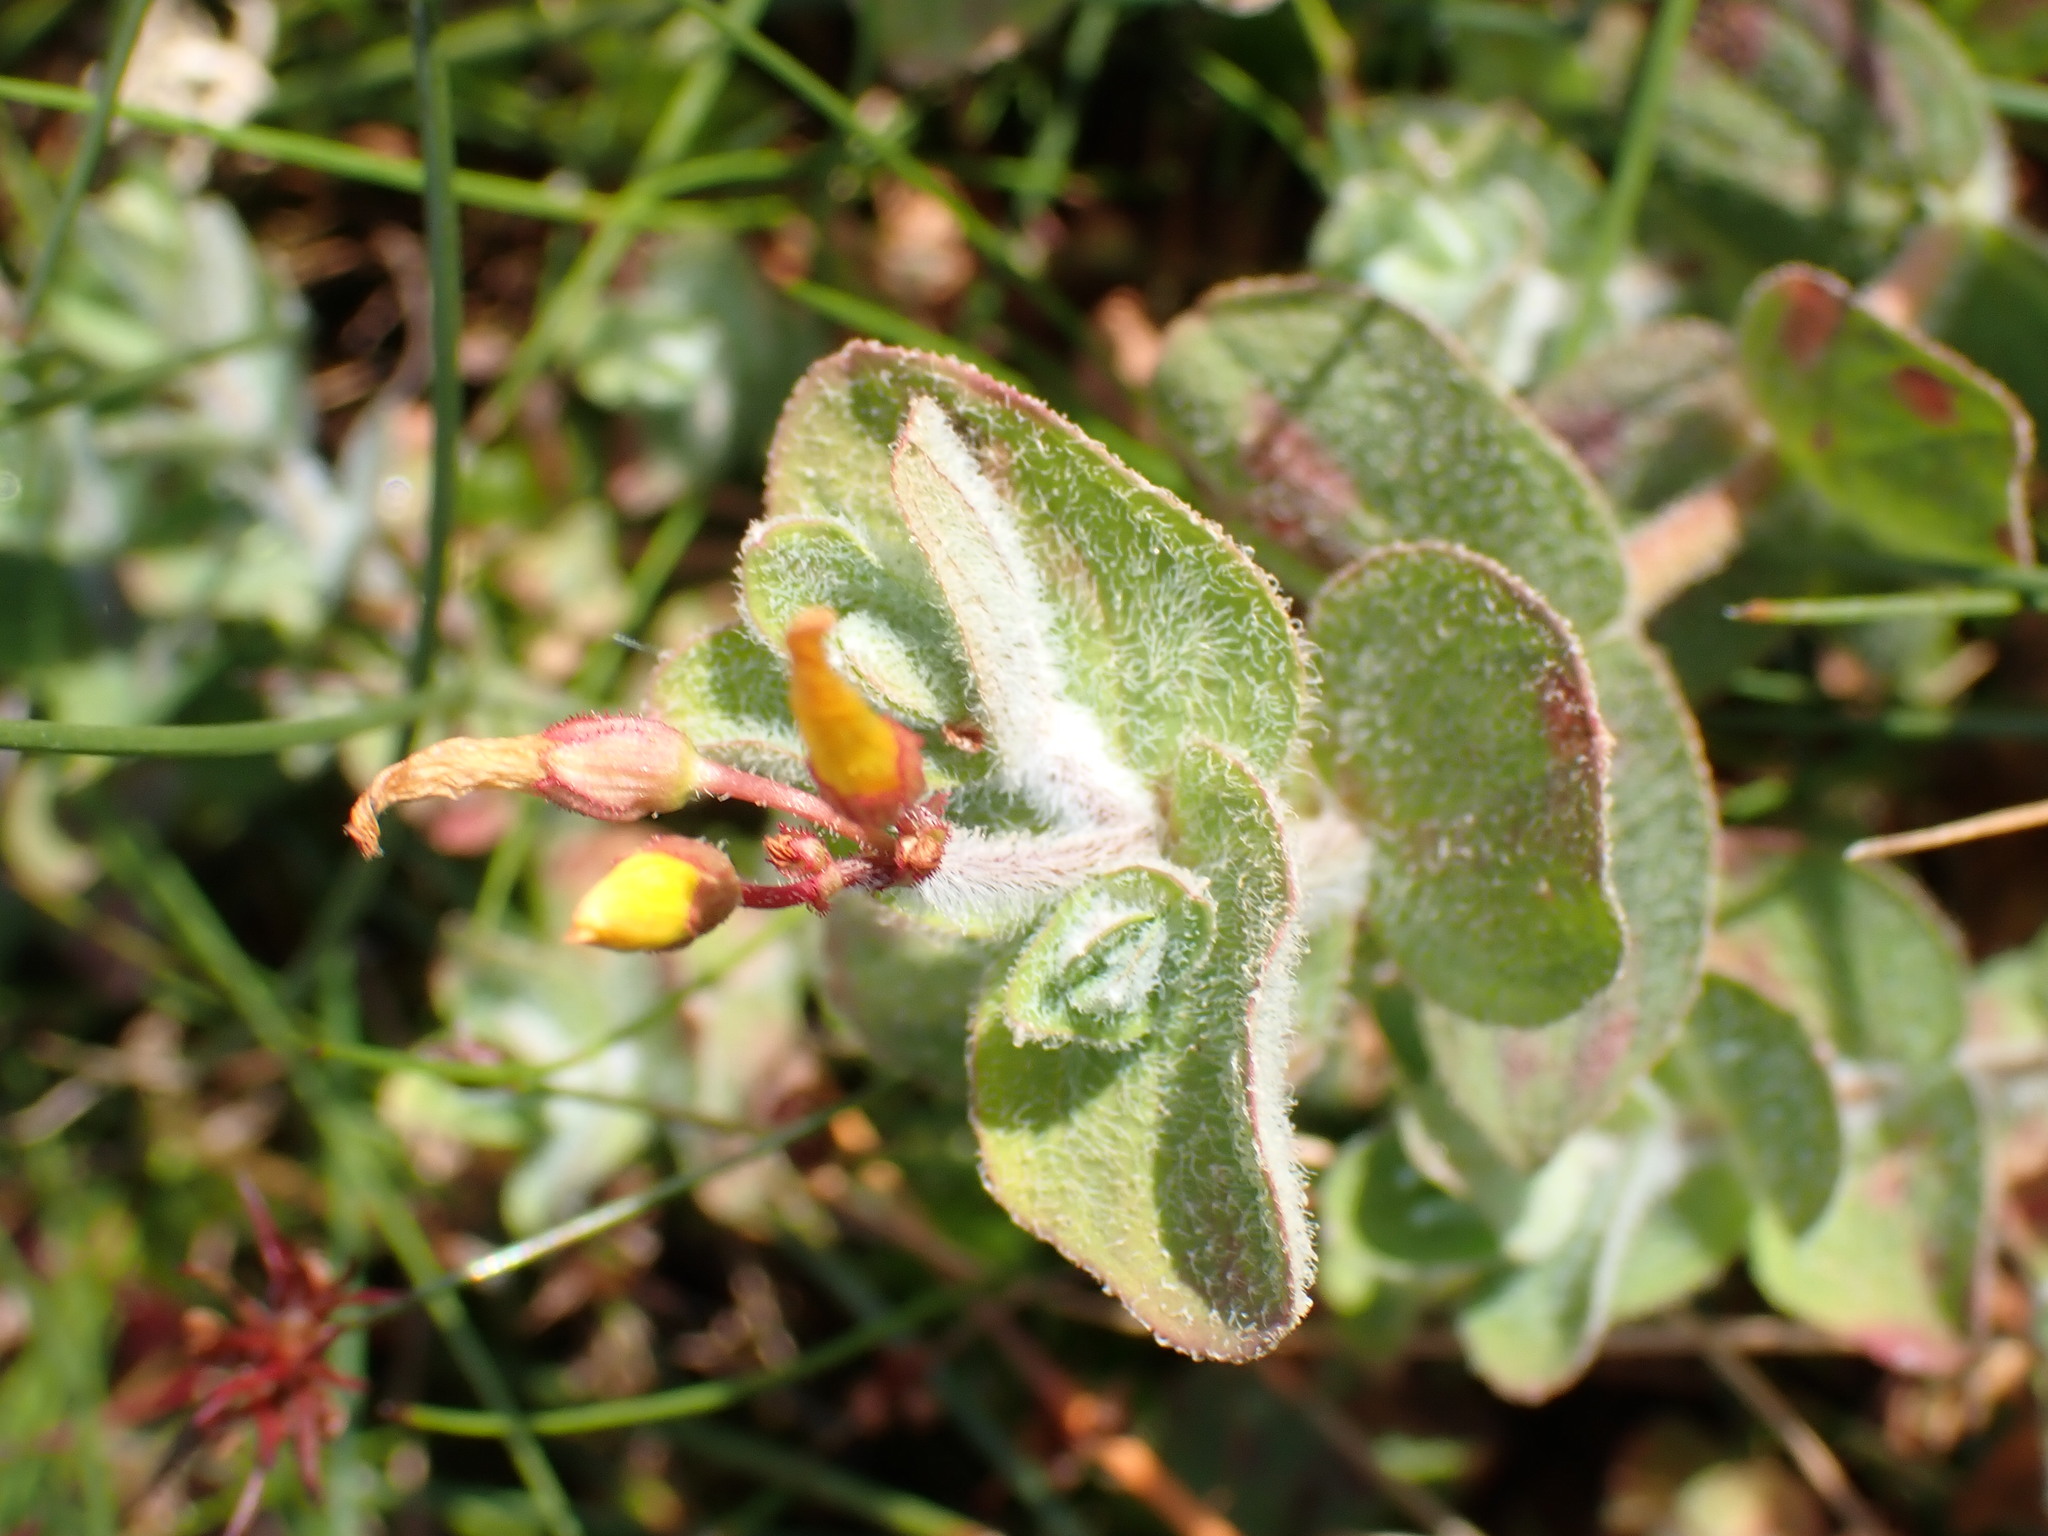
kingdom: Plantae
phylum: Tracheophyta
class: Magnoliopsida
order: Malpighiales
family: Hypericaceae
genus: Hypericum
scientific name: Hypericum elodes
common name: Marsh st. john's-wort
